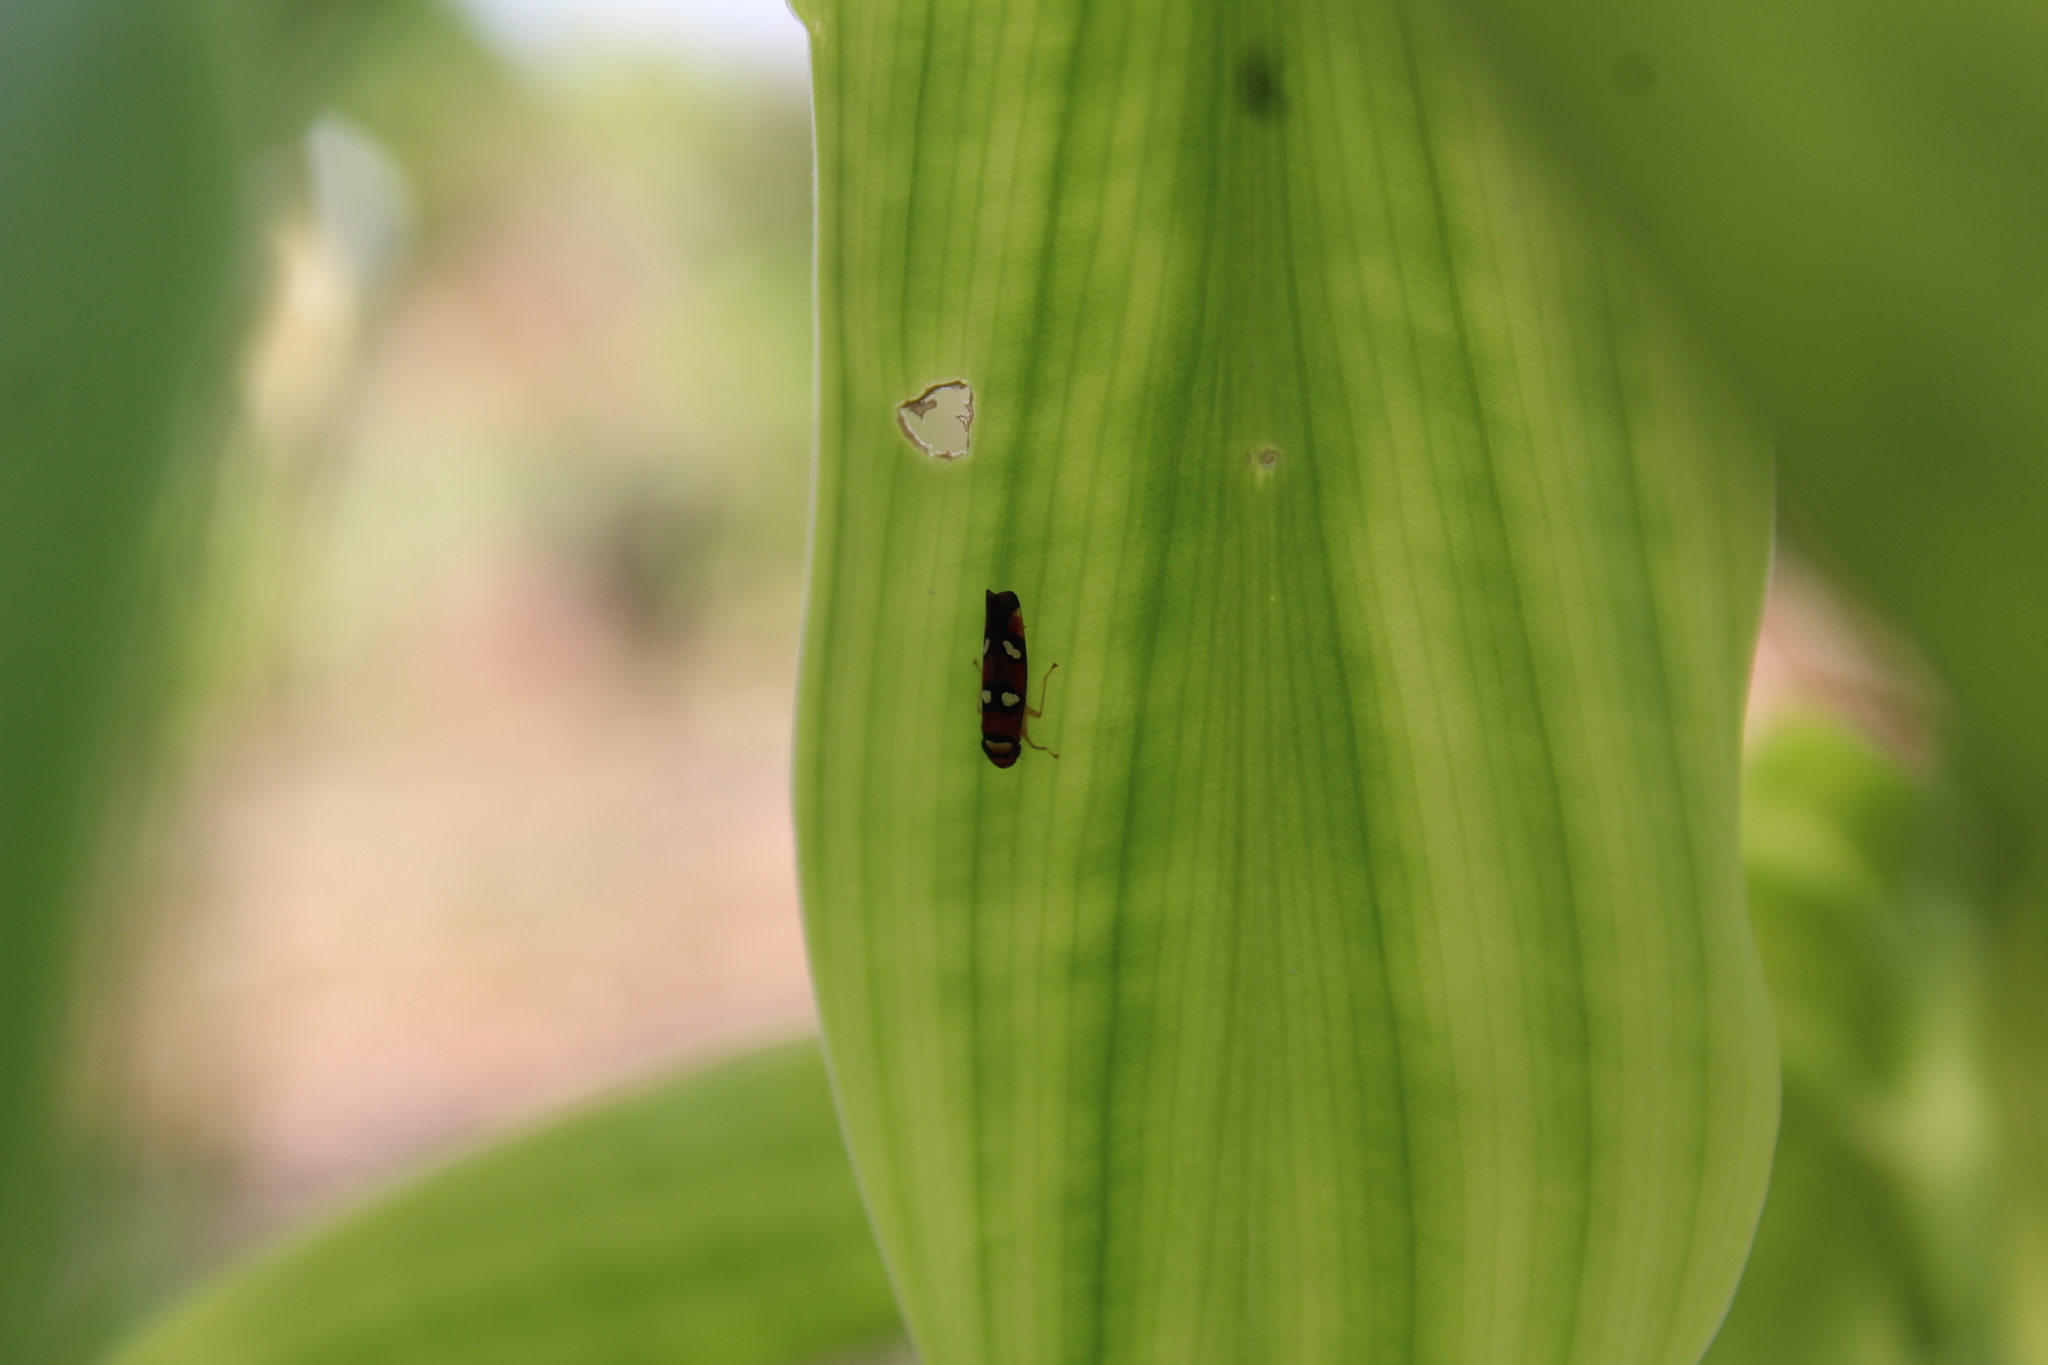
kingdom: Animalia
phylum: Arthropoda
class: Insecta
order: Hemiptera
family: Cicadellidae
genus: Erythrogonia
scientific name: Erythrogonia areolata
